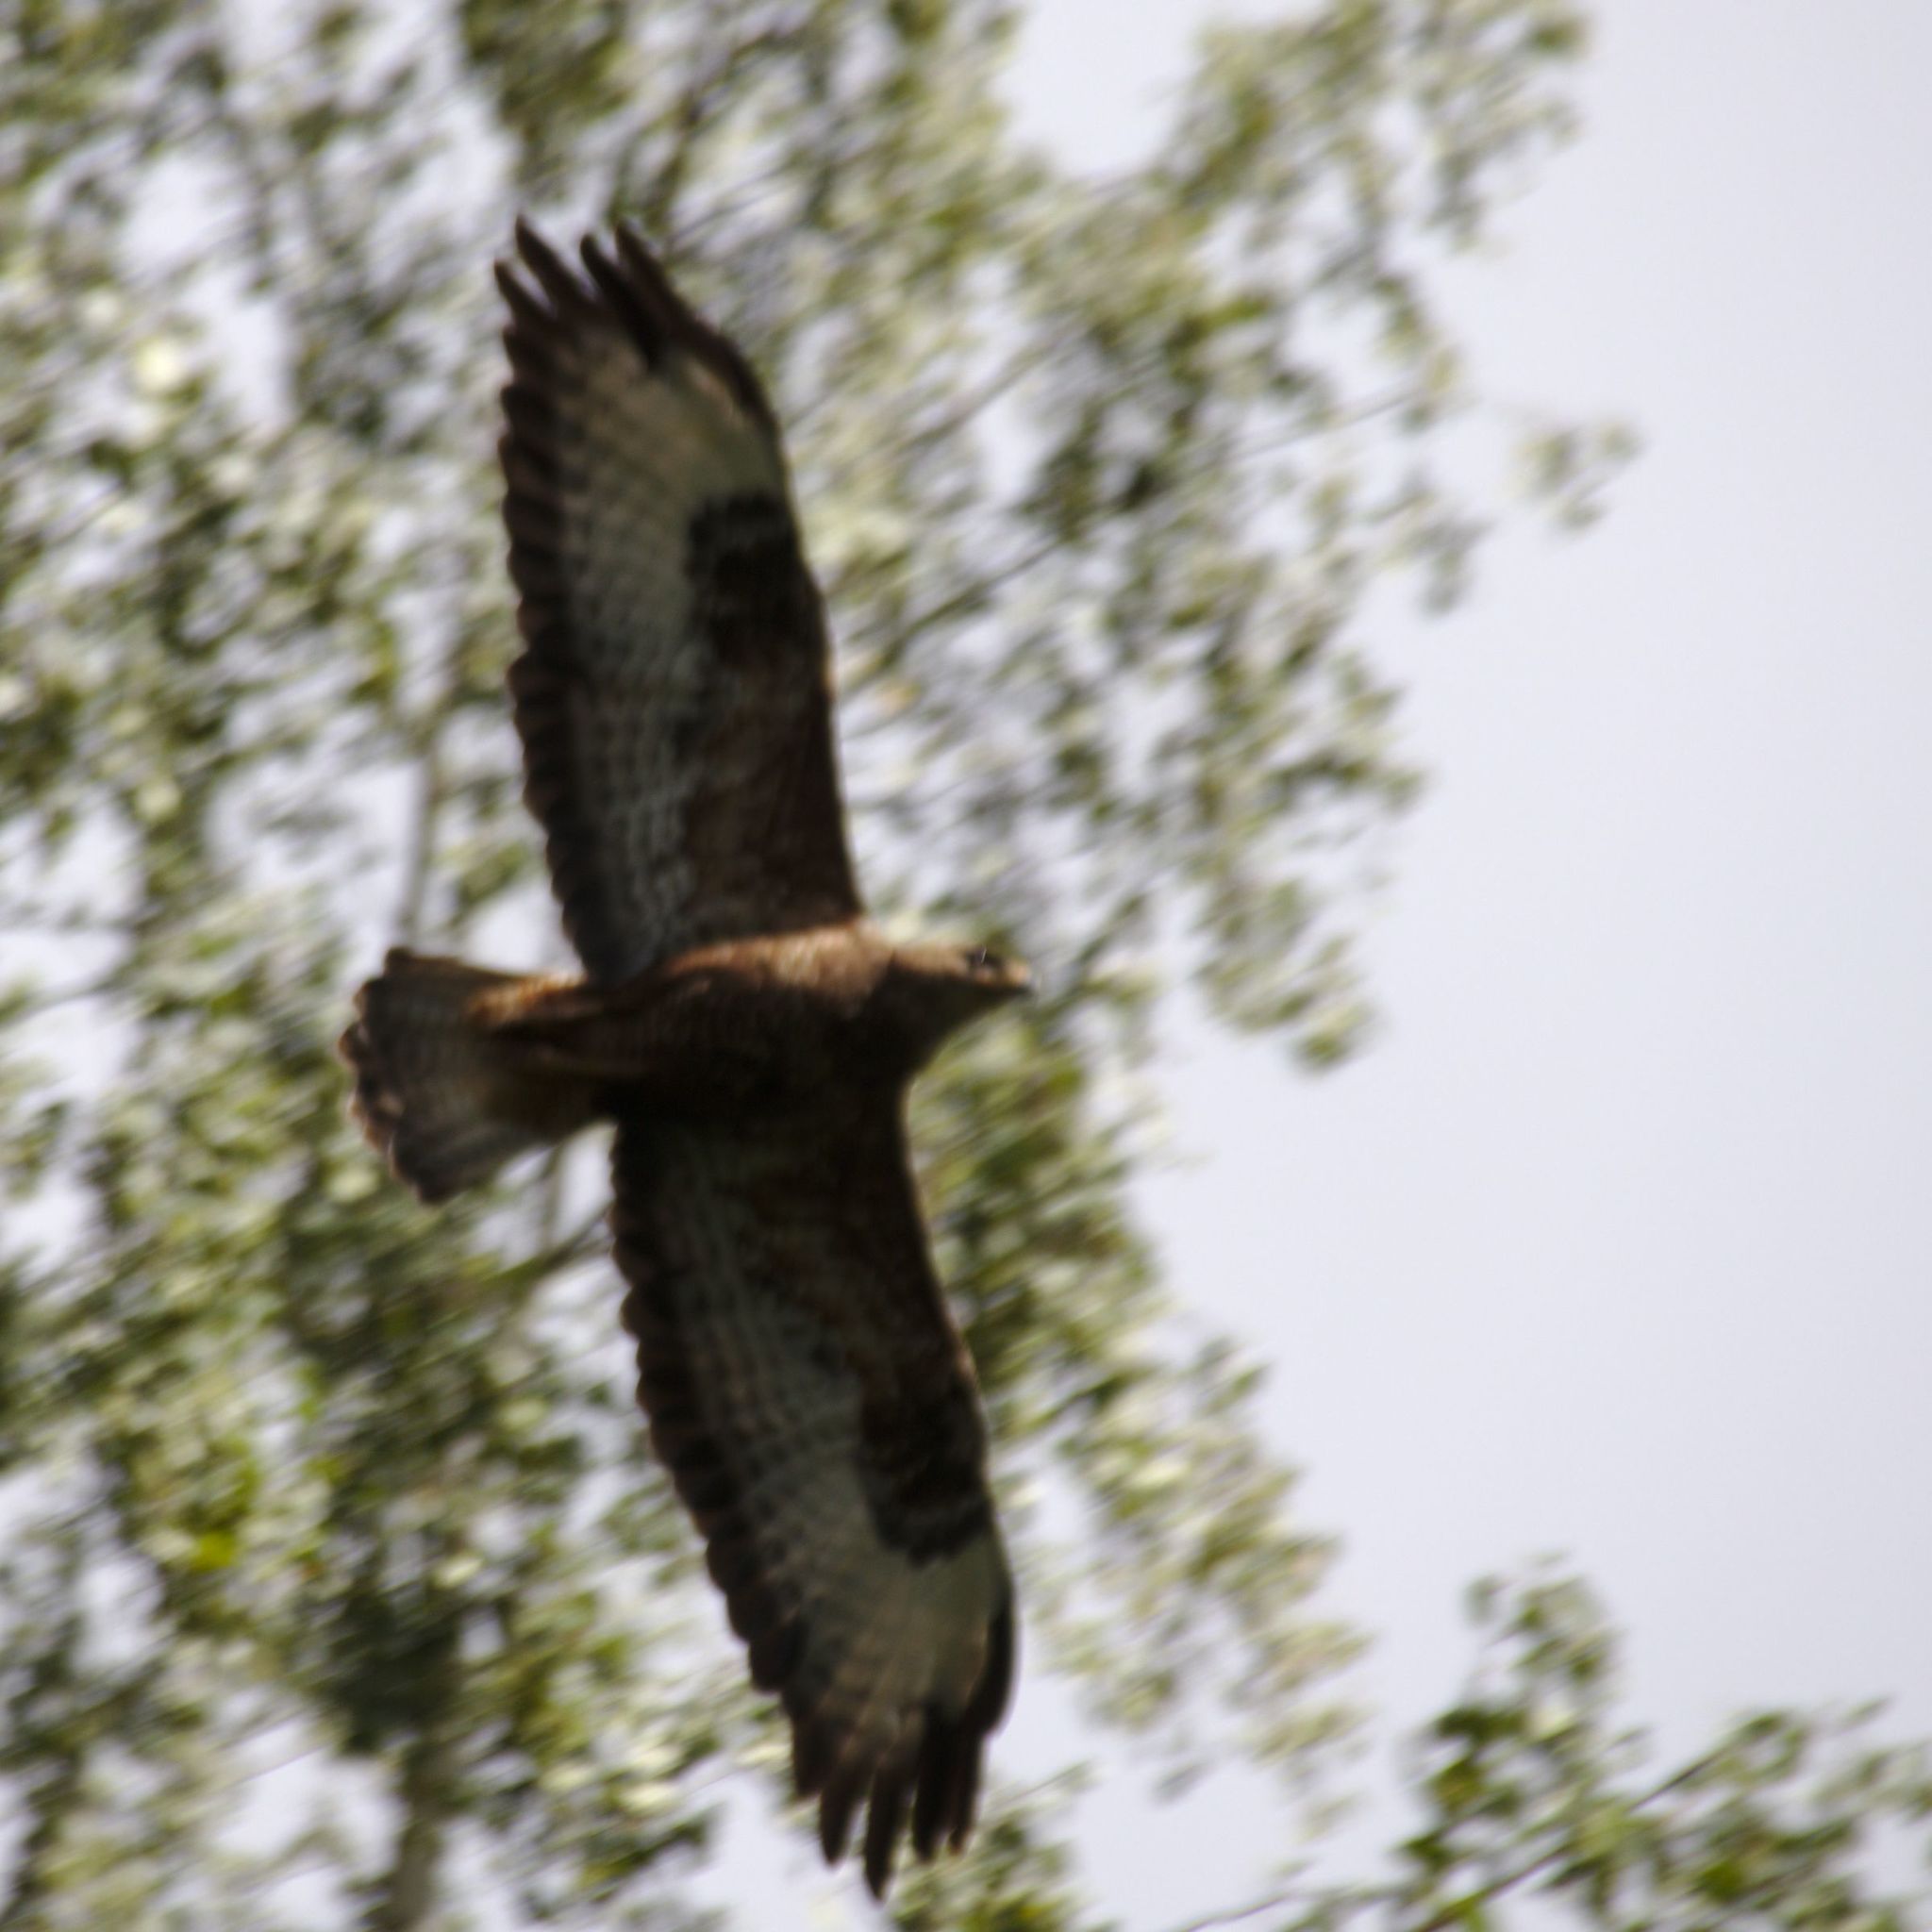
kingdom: Animalia
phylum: Chordata
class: Aves
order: Accipitriformes
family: Accipitridae
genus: Buteo
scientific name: Buteo buteo
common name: Common buzzard
